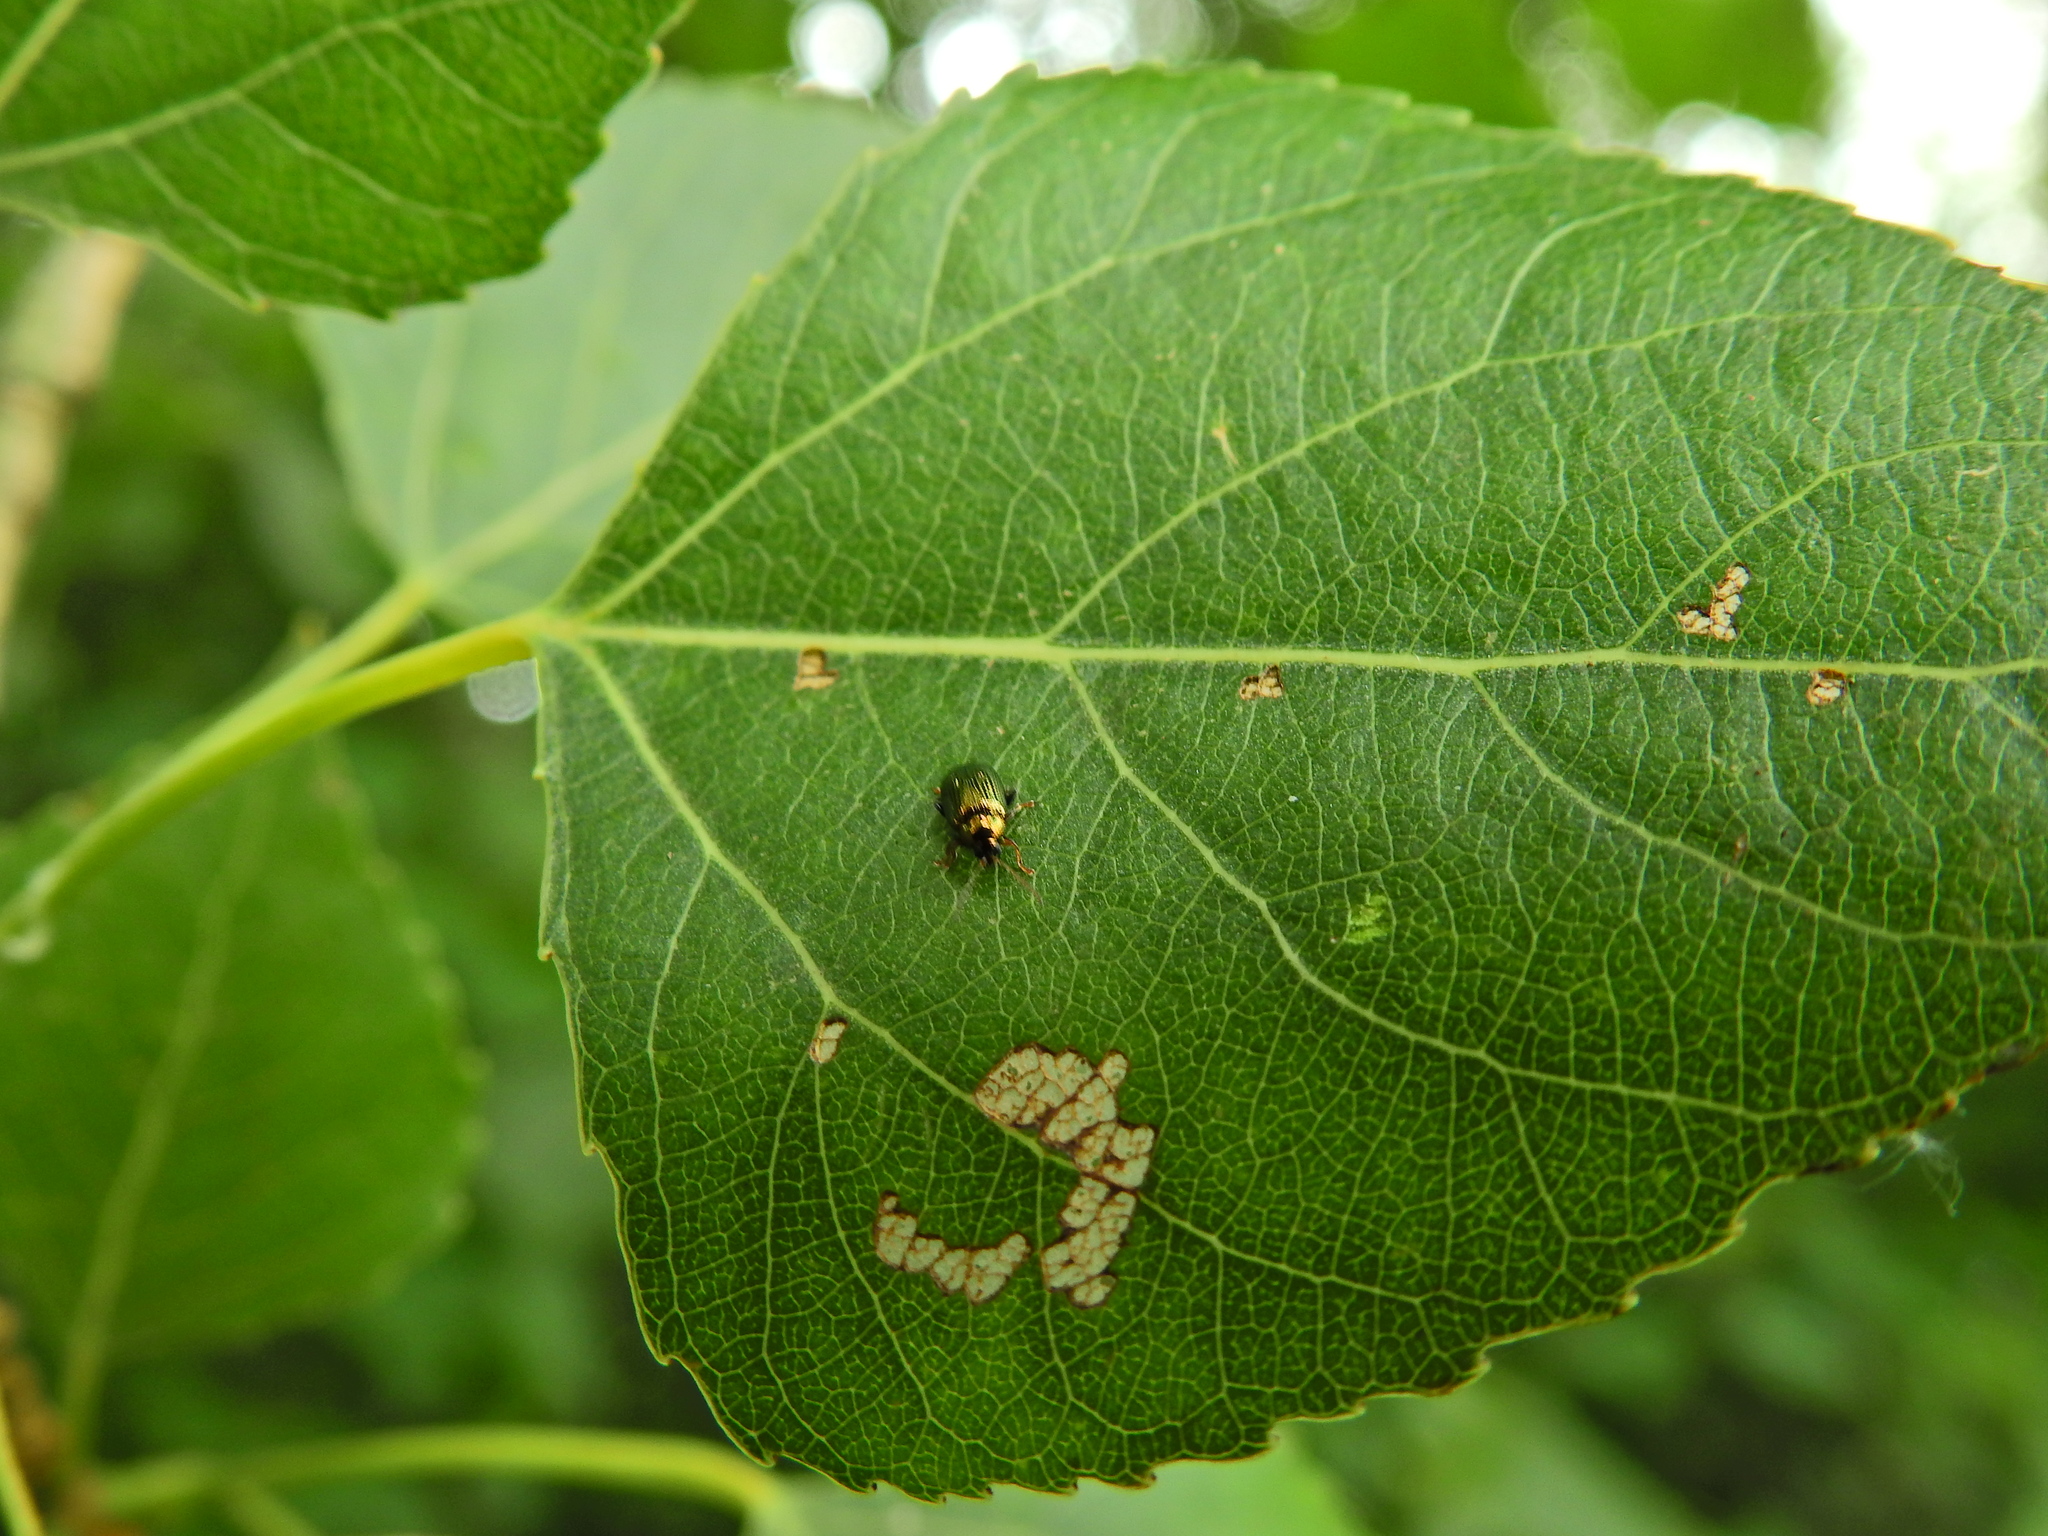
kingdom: Animalia
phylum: Arthropoda
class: Insecta
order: Coleoptera
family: Chrysomelidae
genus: Phratora
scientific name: Phratora vitellinae
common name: Brassy willow beetle
